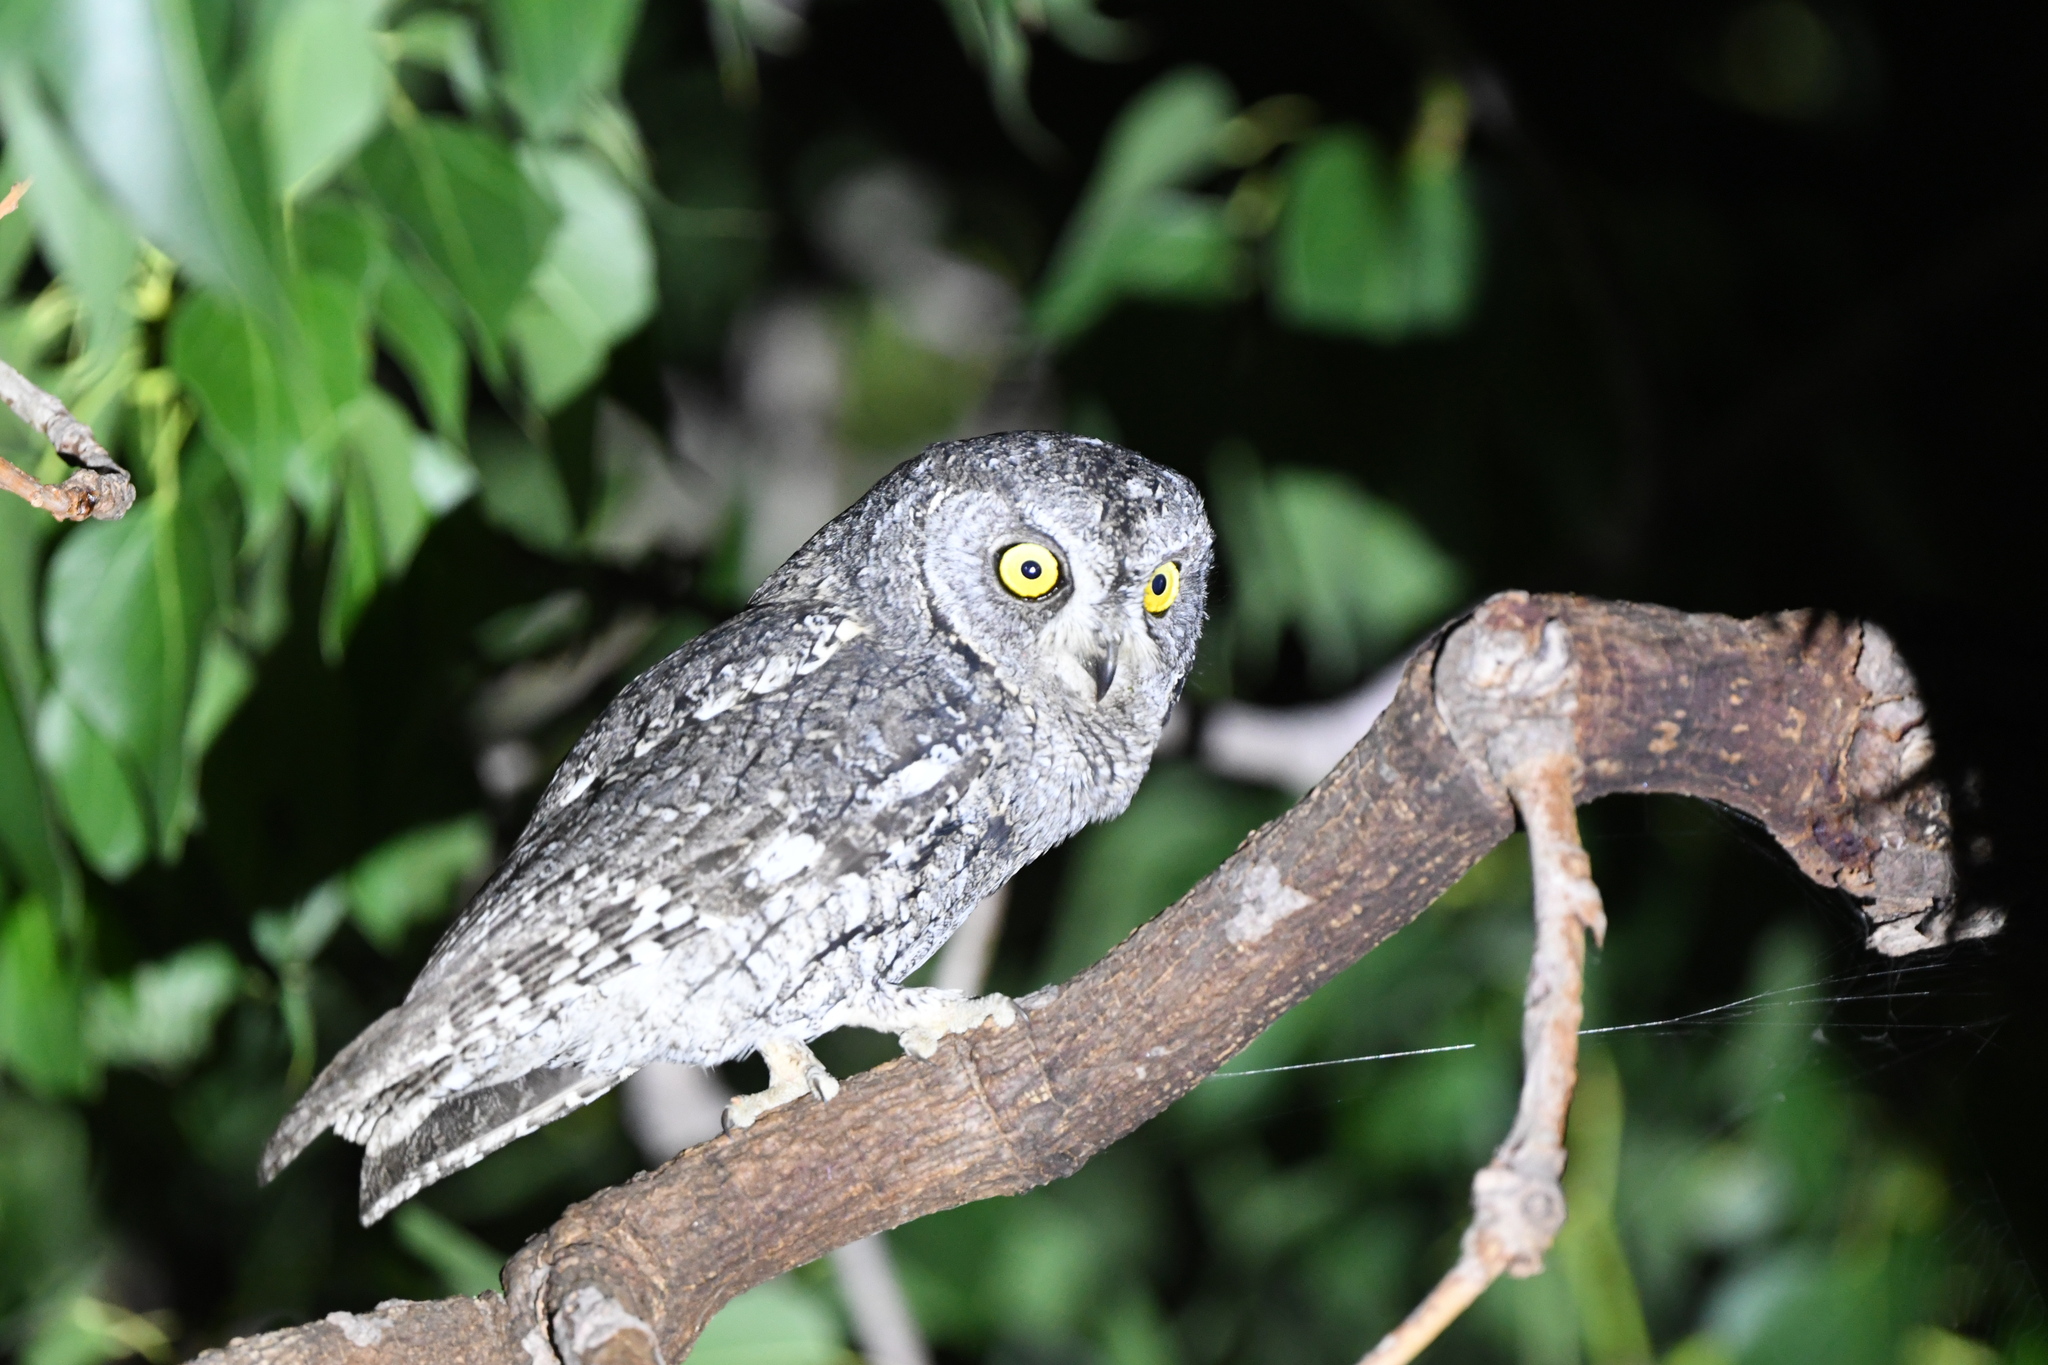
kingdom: Animalia
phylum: Chordata
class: Aves
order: Strigiformes
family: Strigidae
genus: Otus
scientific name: Otus cyprius
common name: Cyprus scops owl
